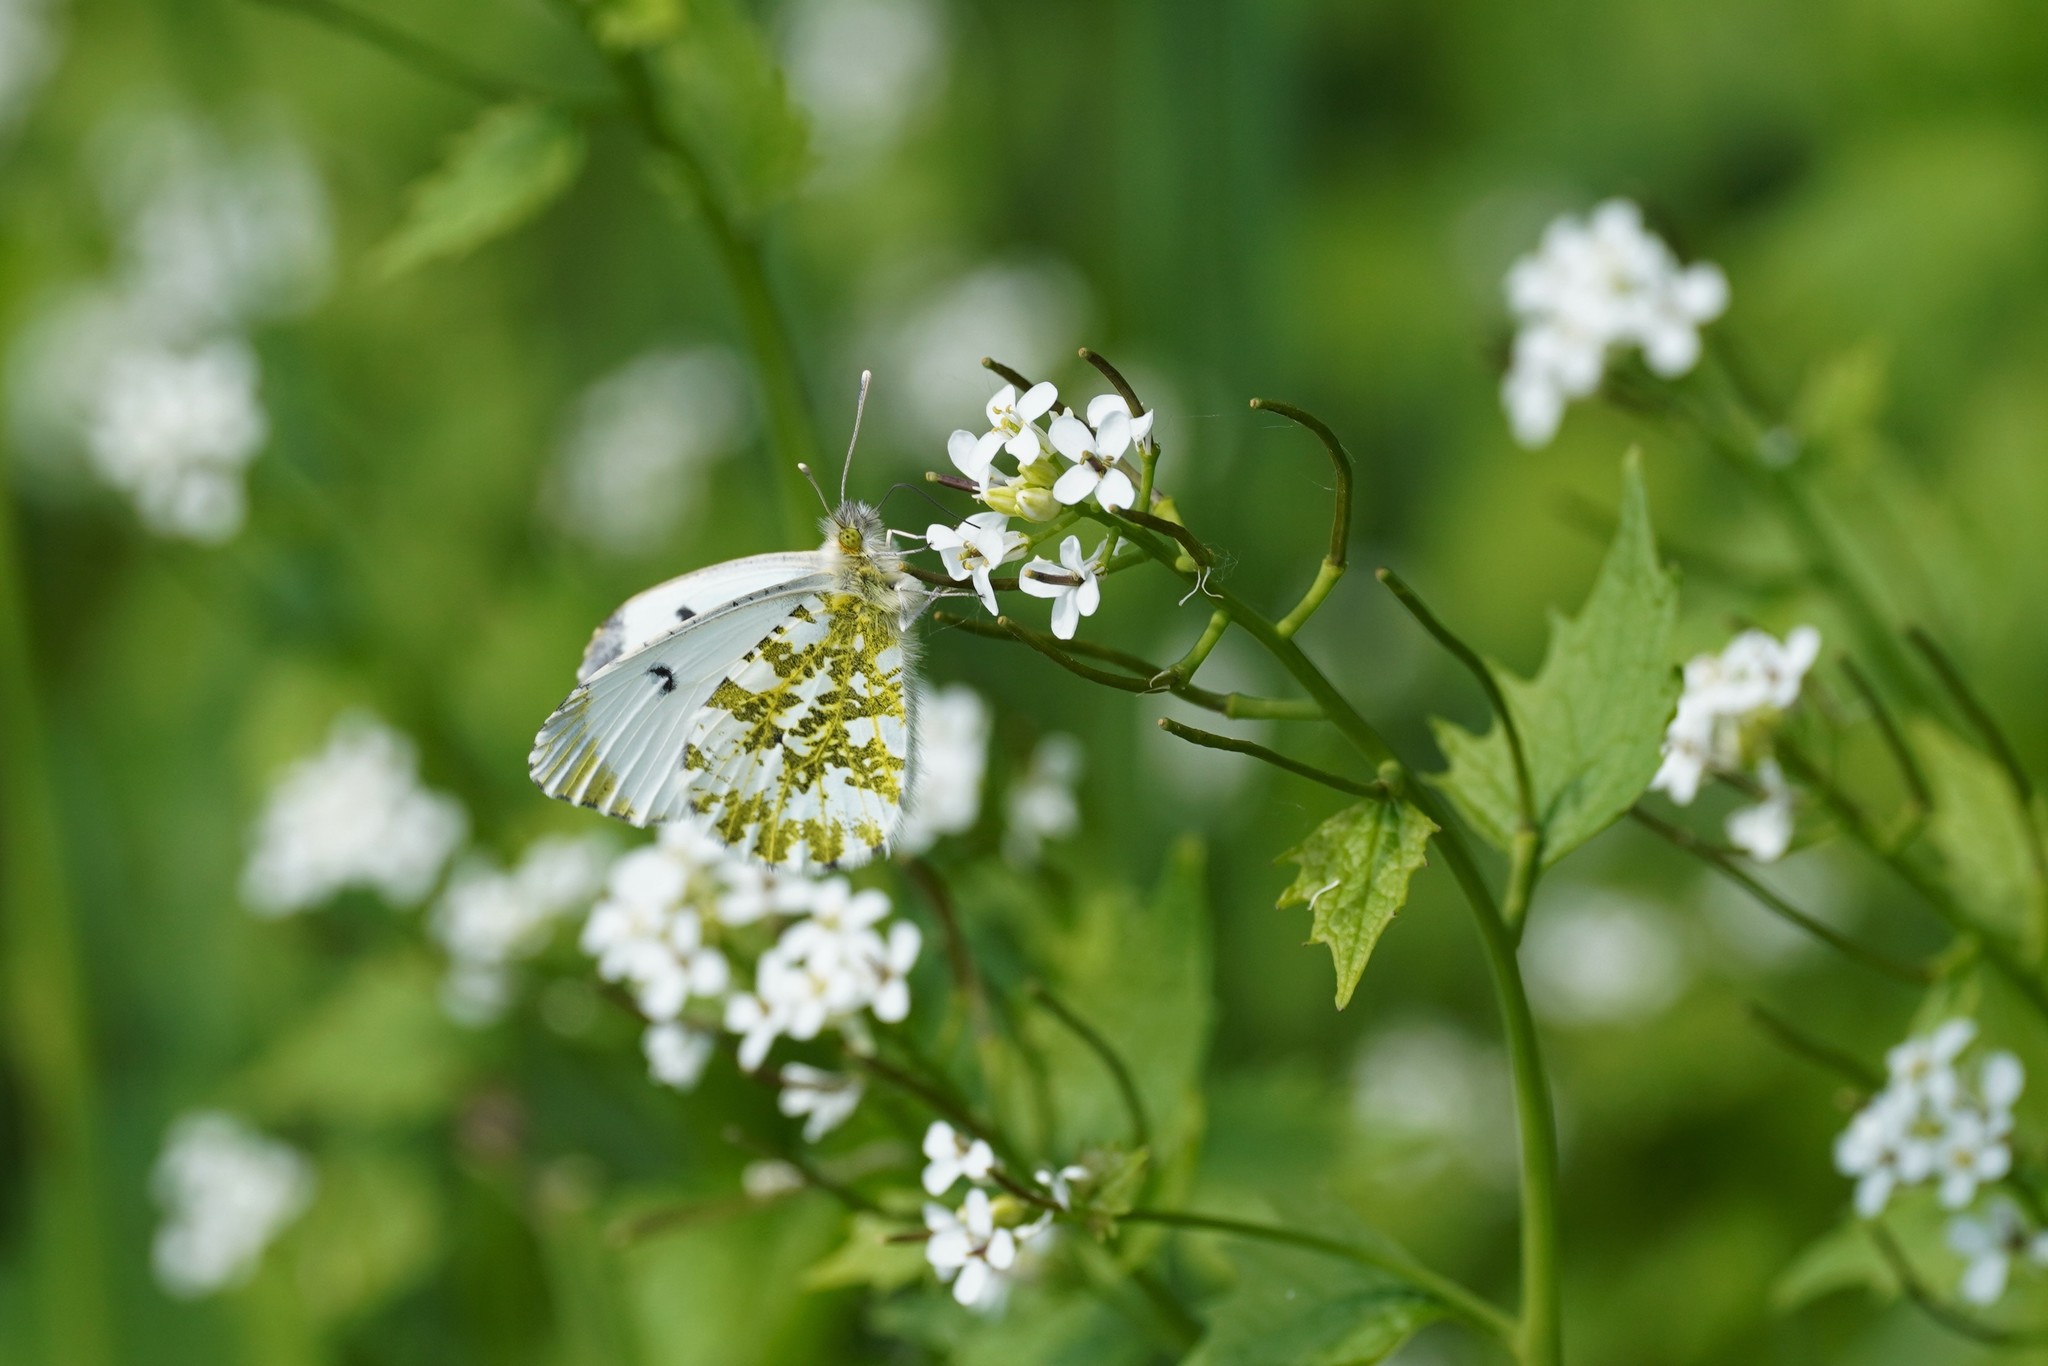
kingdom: Animalia
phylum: Arthropoda
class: Insecta
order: Lepidoptera
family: Pieridae
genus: Anthocharis
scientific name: Anthocharis cardamines
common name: Orange-tip
